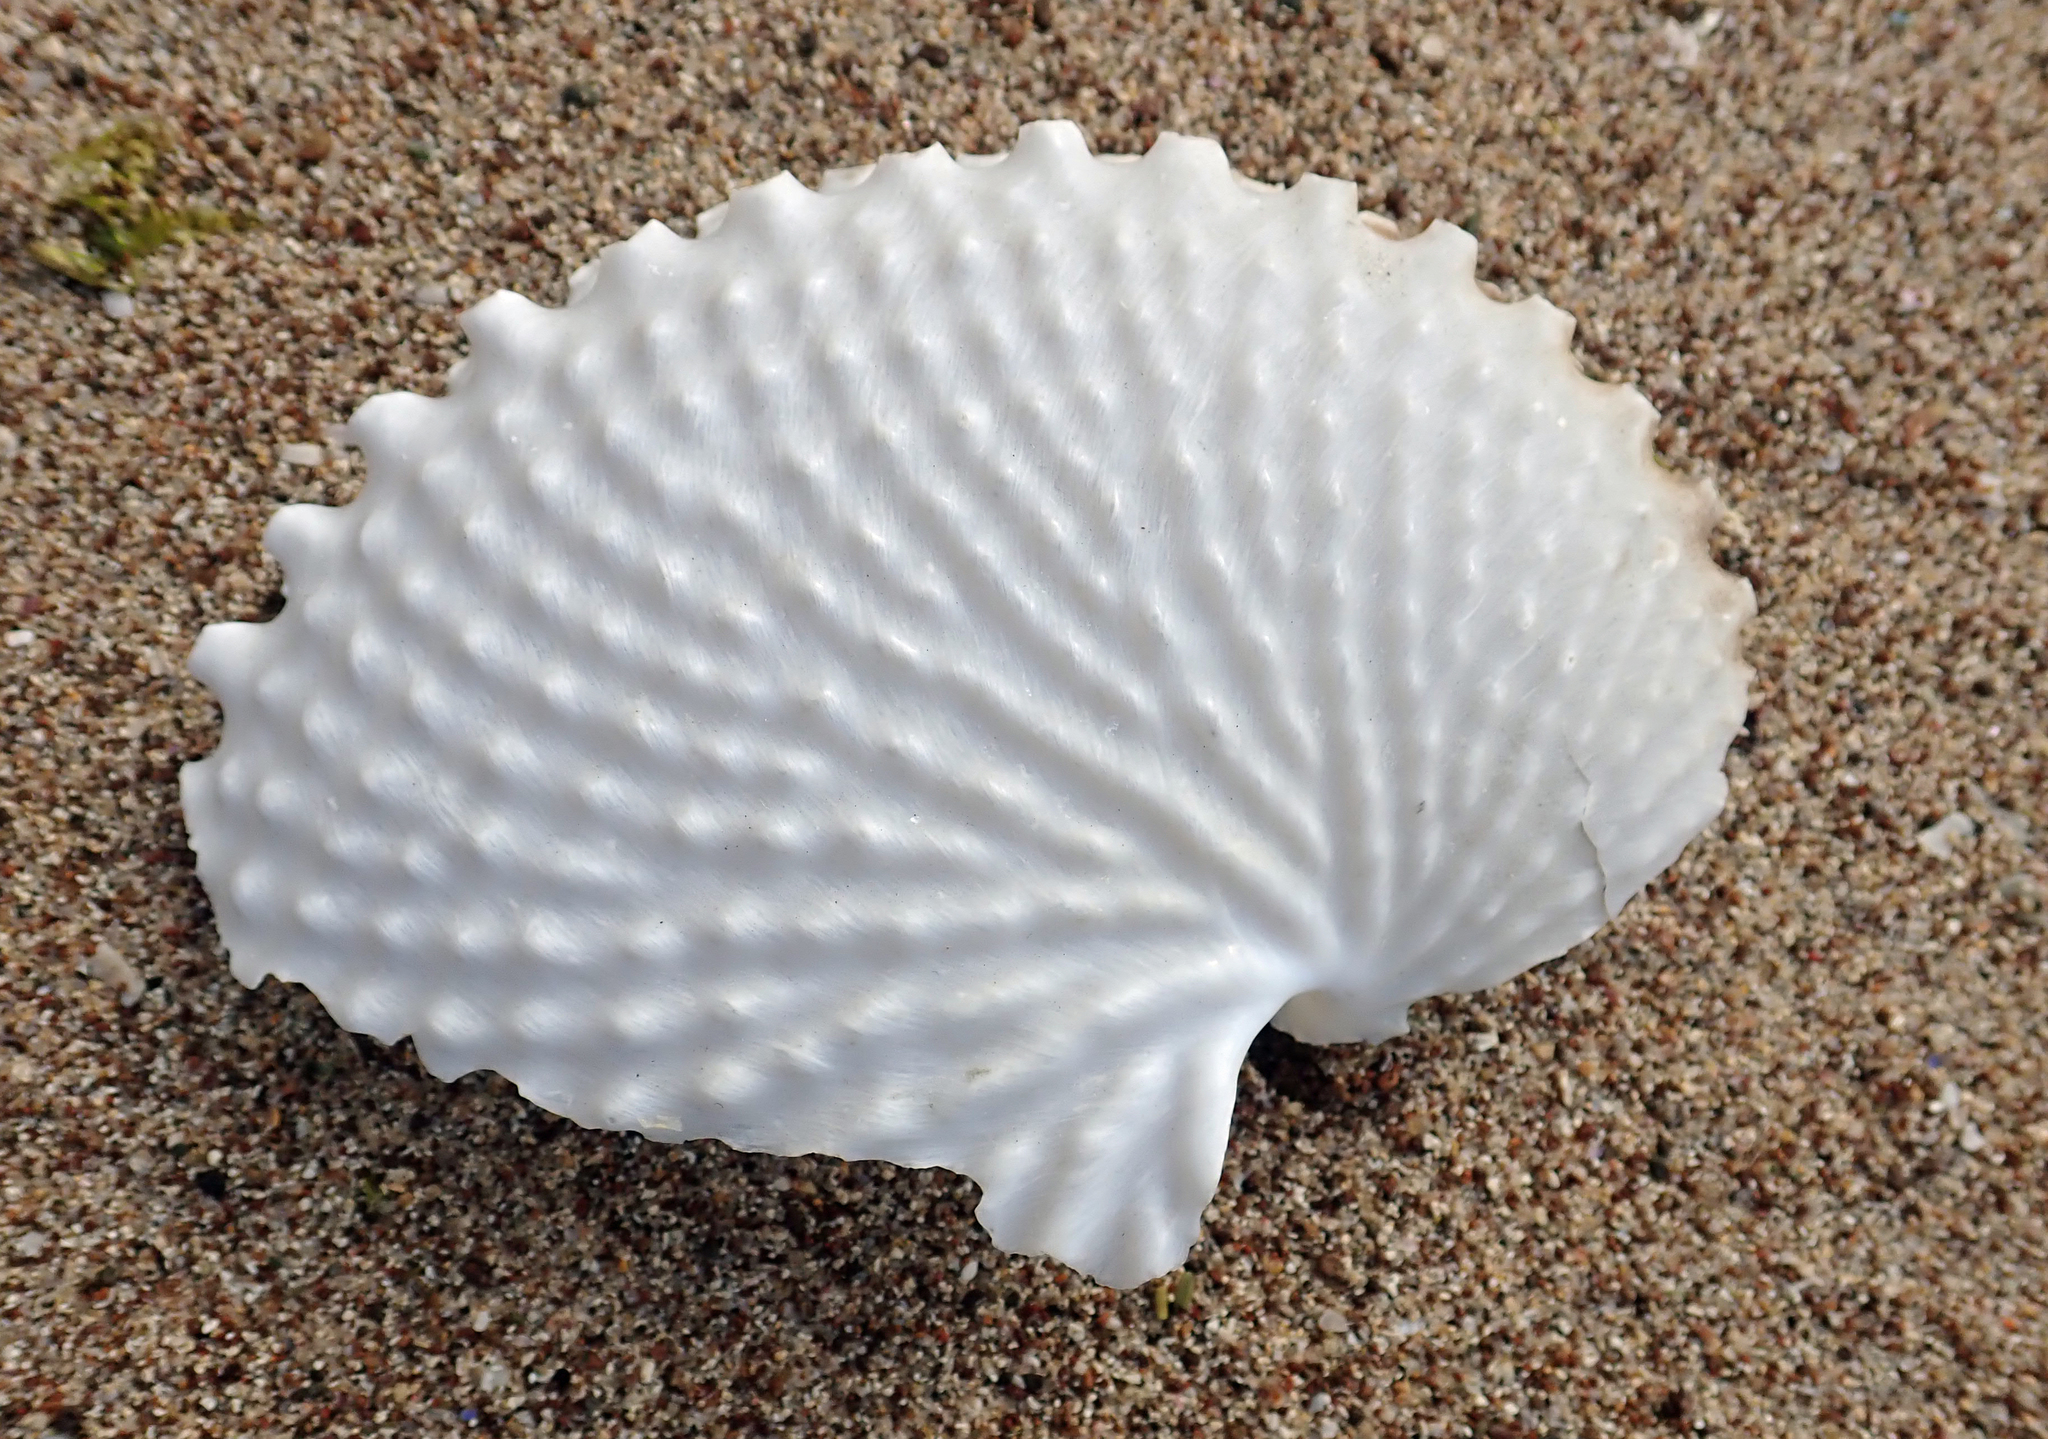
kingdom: Animalia
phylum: Mollusca
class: Cephalopoda
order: Octopoda
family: Argonautidae
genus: Argonauta
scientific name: Argonauta nodosus
